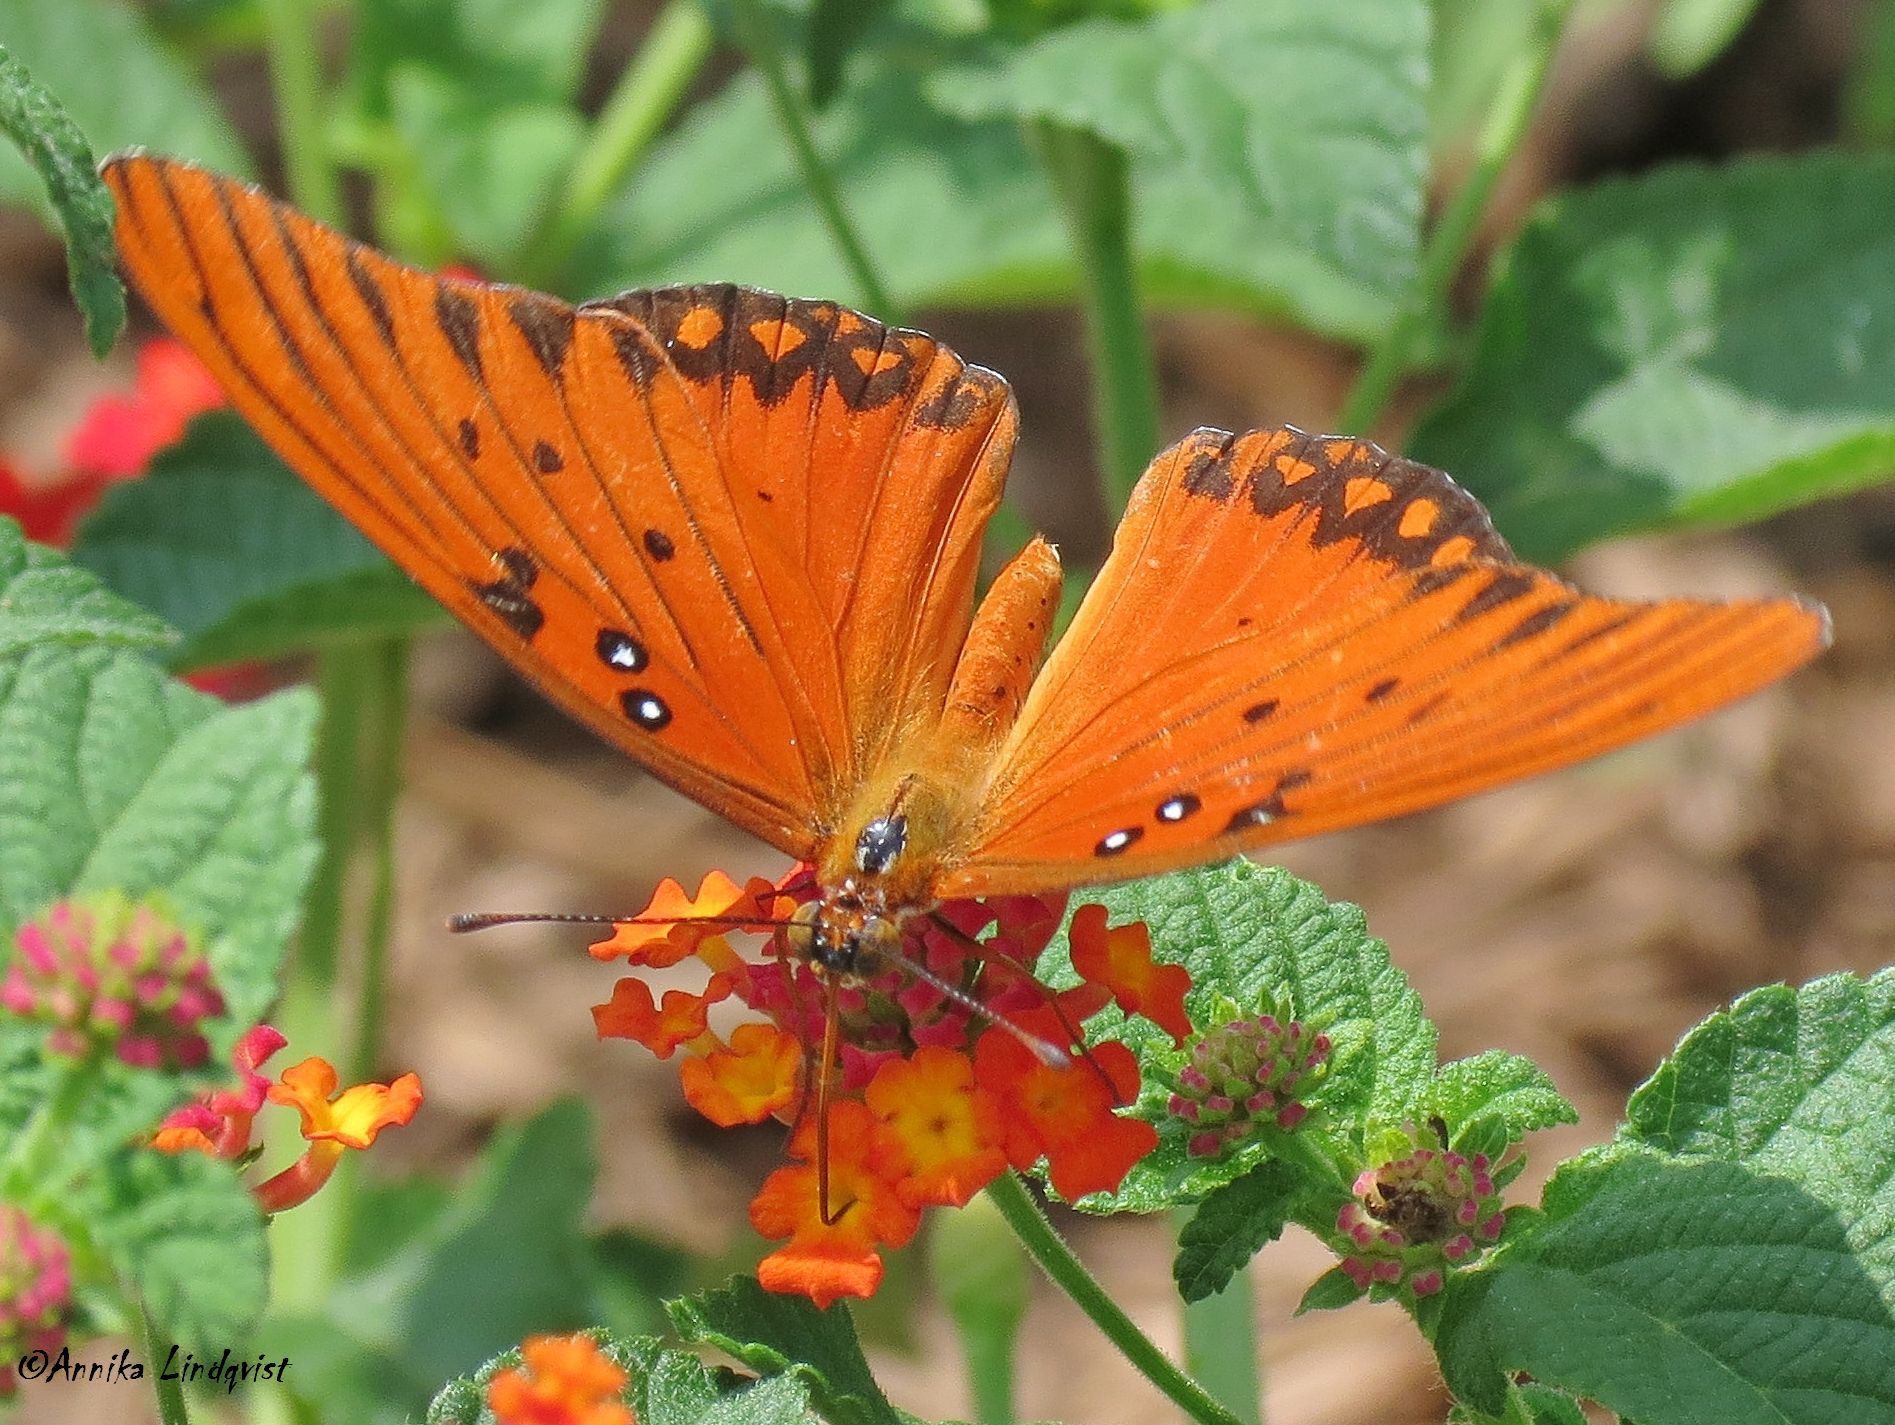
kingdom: Animalia
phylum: Arthropoda
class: Insecta
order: Lepidoptera
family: Nymphalidae
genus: Dione
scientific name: Dione vanillae
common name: Gulf fritillary
